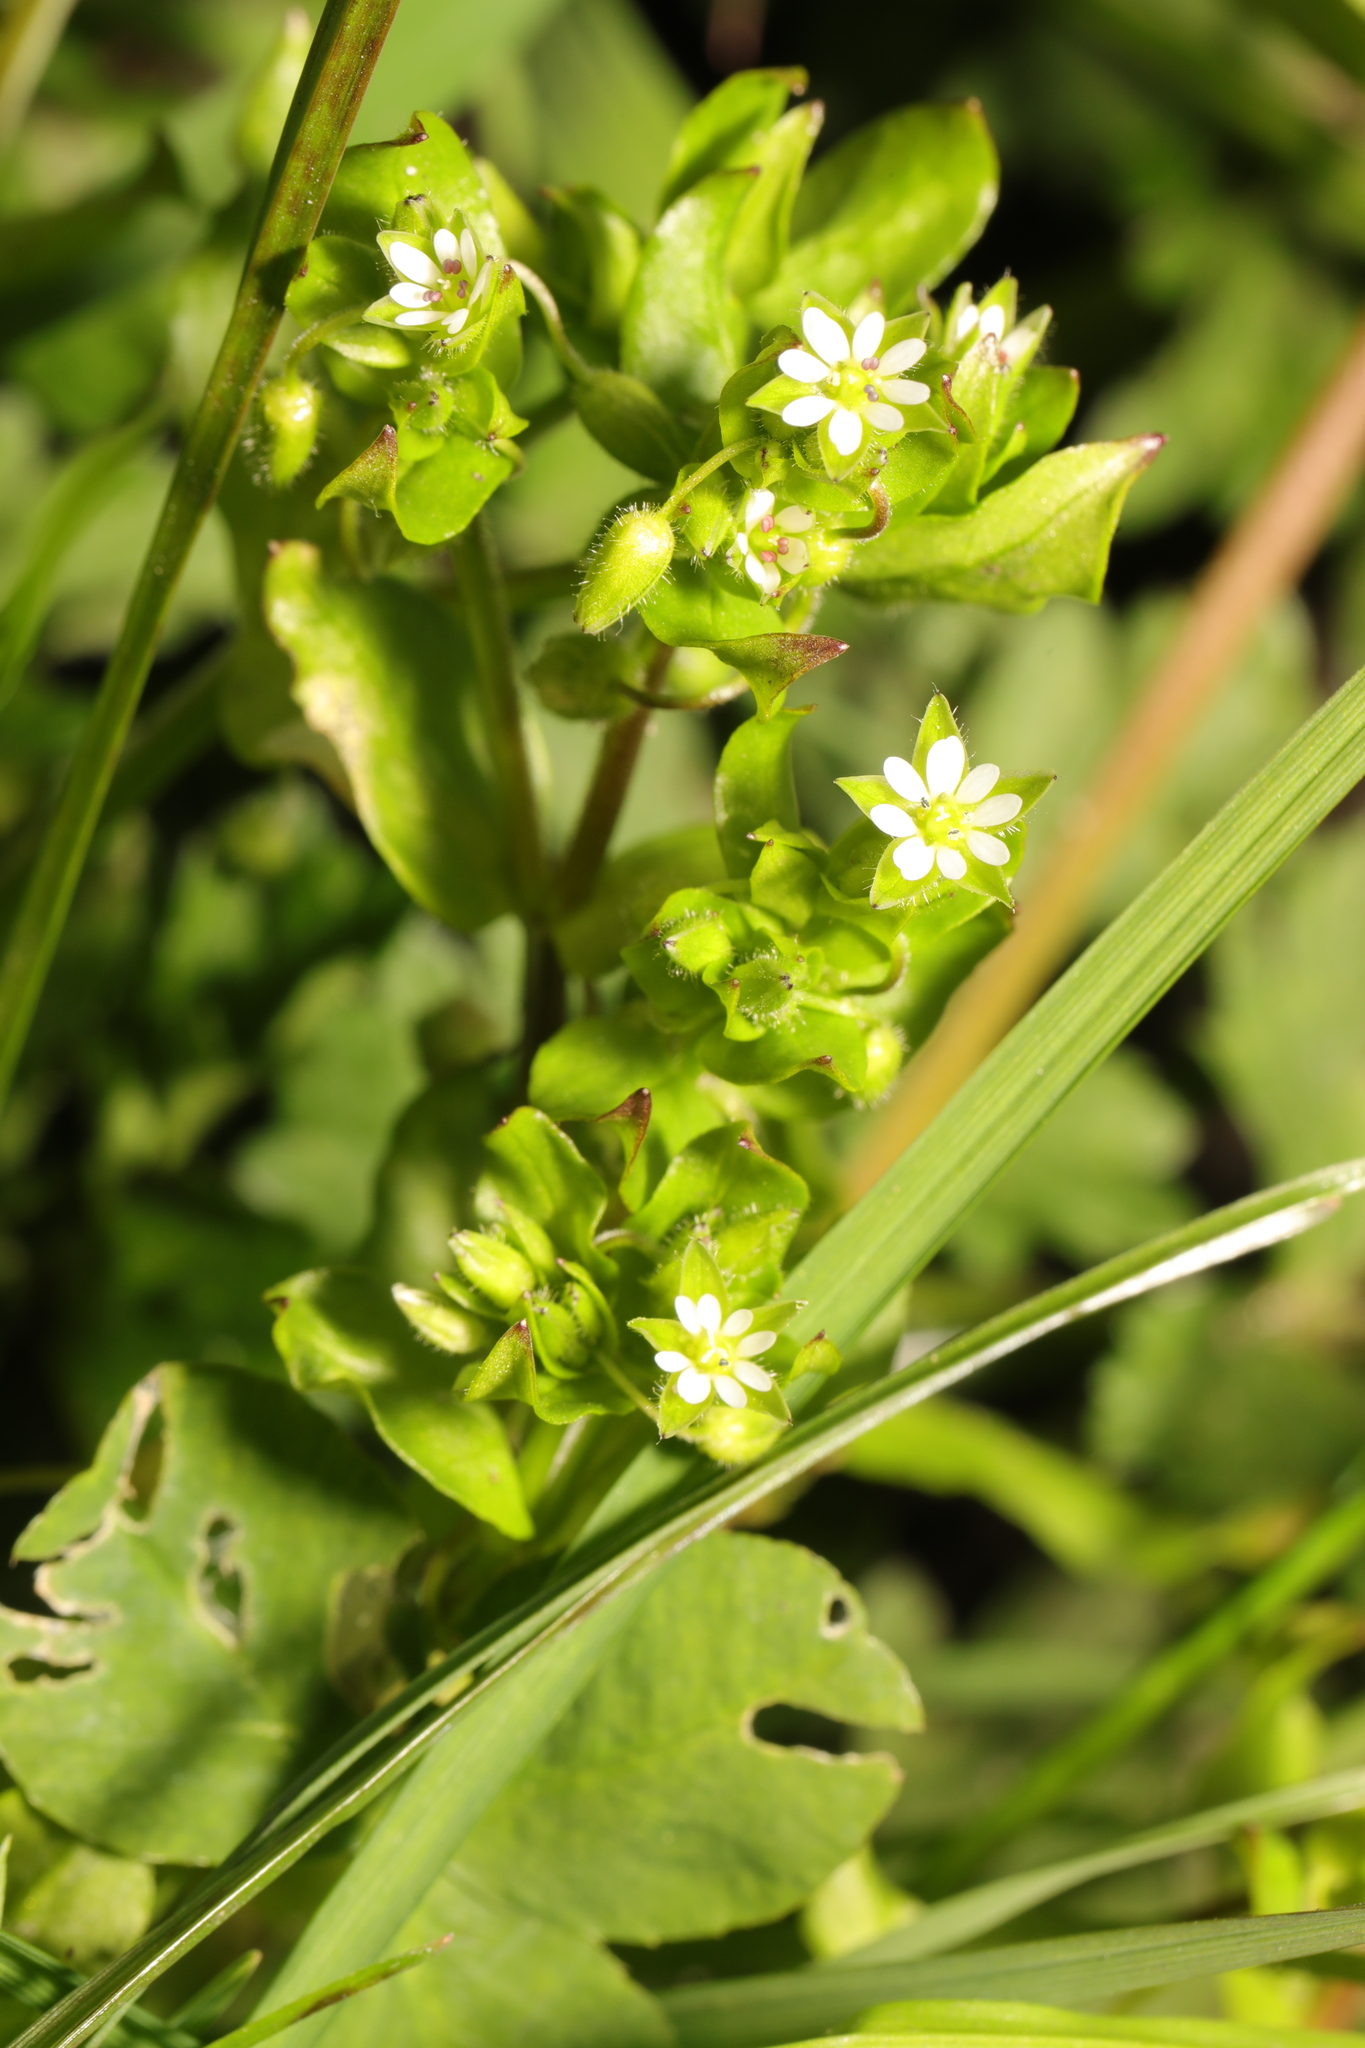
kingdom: Plantae
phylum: Tracheophyta
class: Magnoliopsida
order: Caryophyllales
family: Caryophyllaceae
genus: Stellaria
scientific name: Stellaria media
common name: Common chickweed
